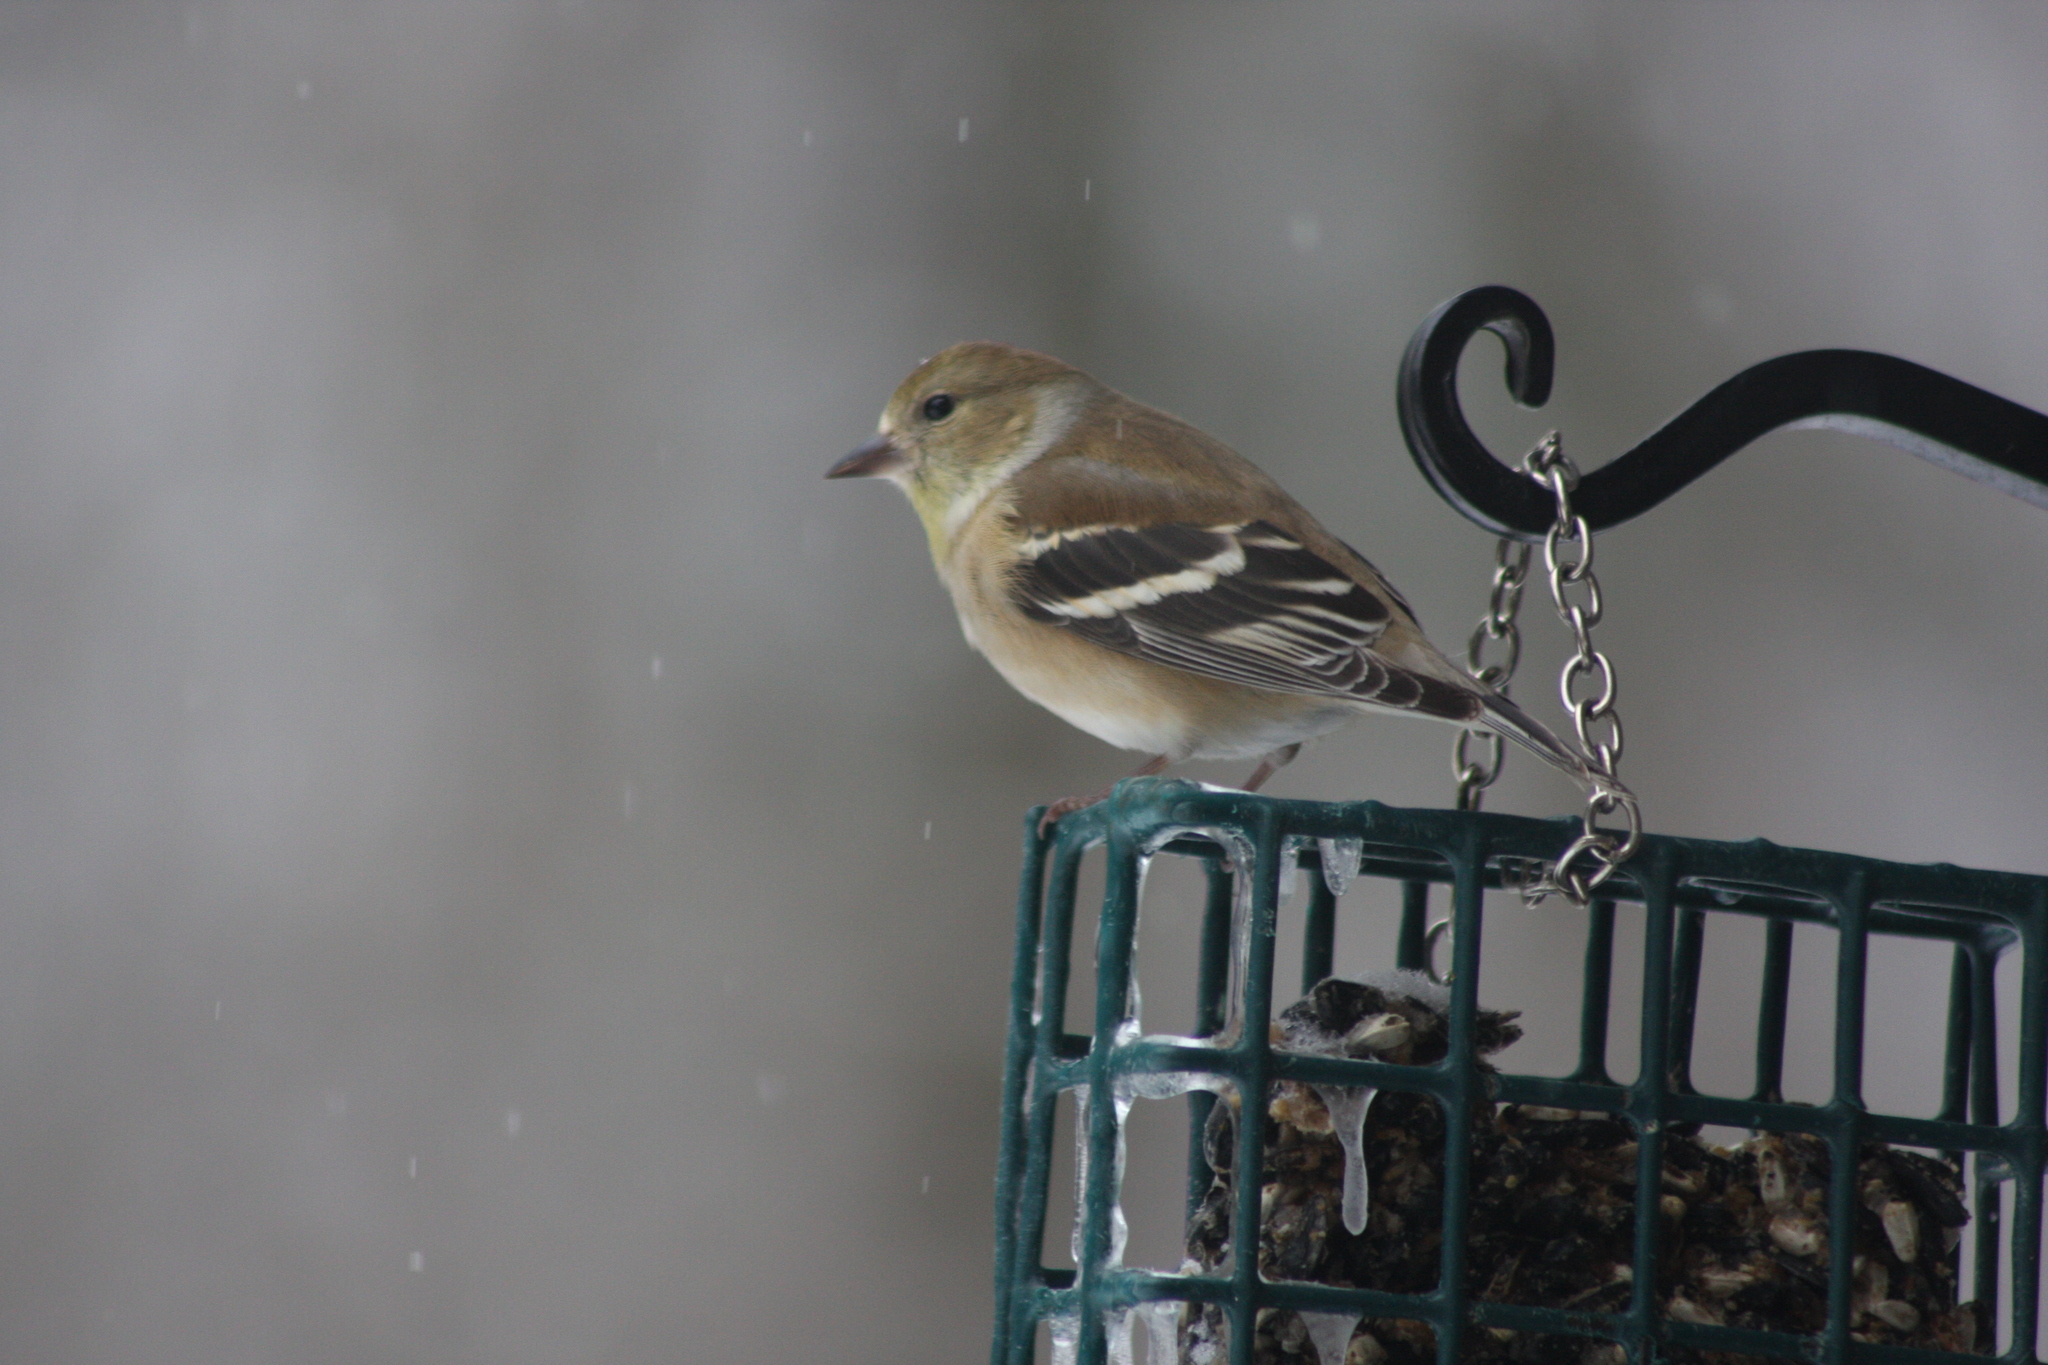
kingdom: Animalia
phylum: Chordata
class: Aves
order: Passeriformes
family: Fringillidae
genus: Spinus
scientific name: Spinus tristis
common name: American goldfinch
